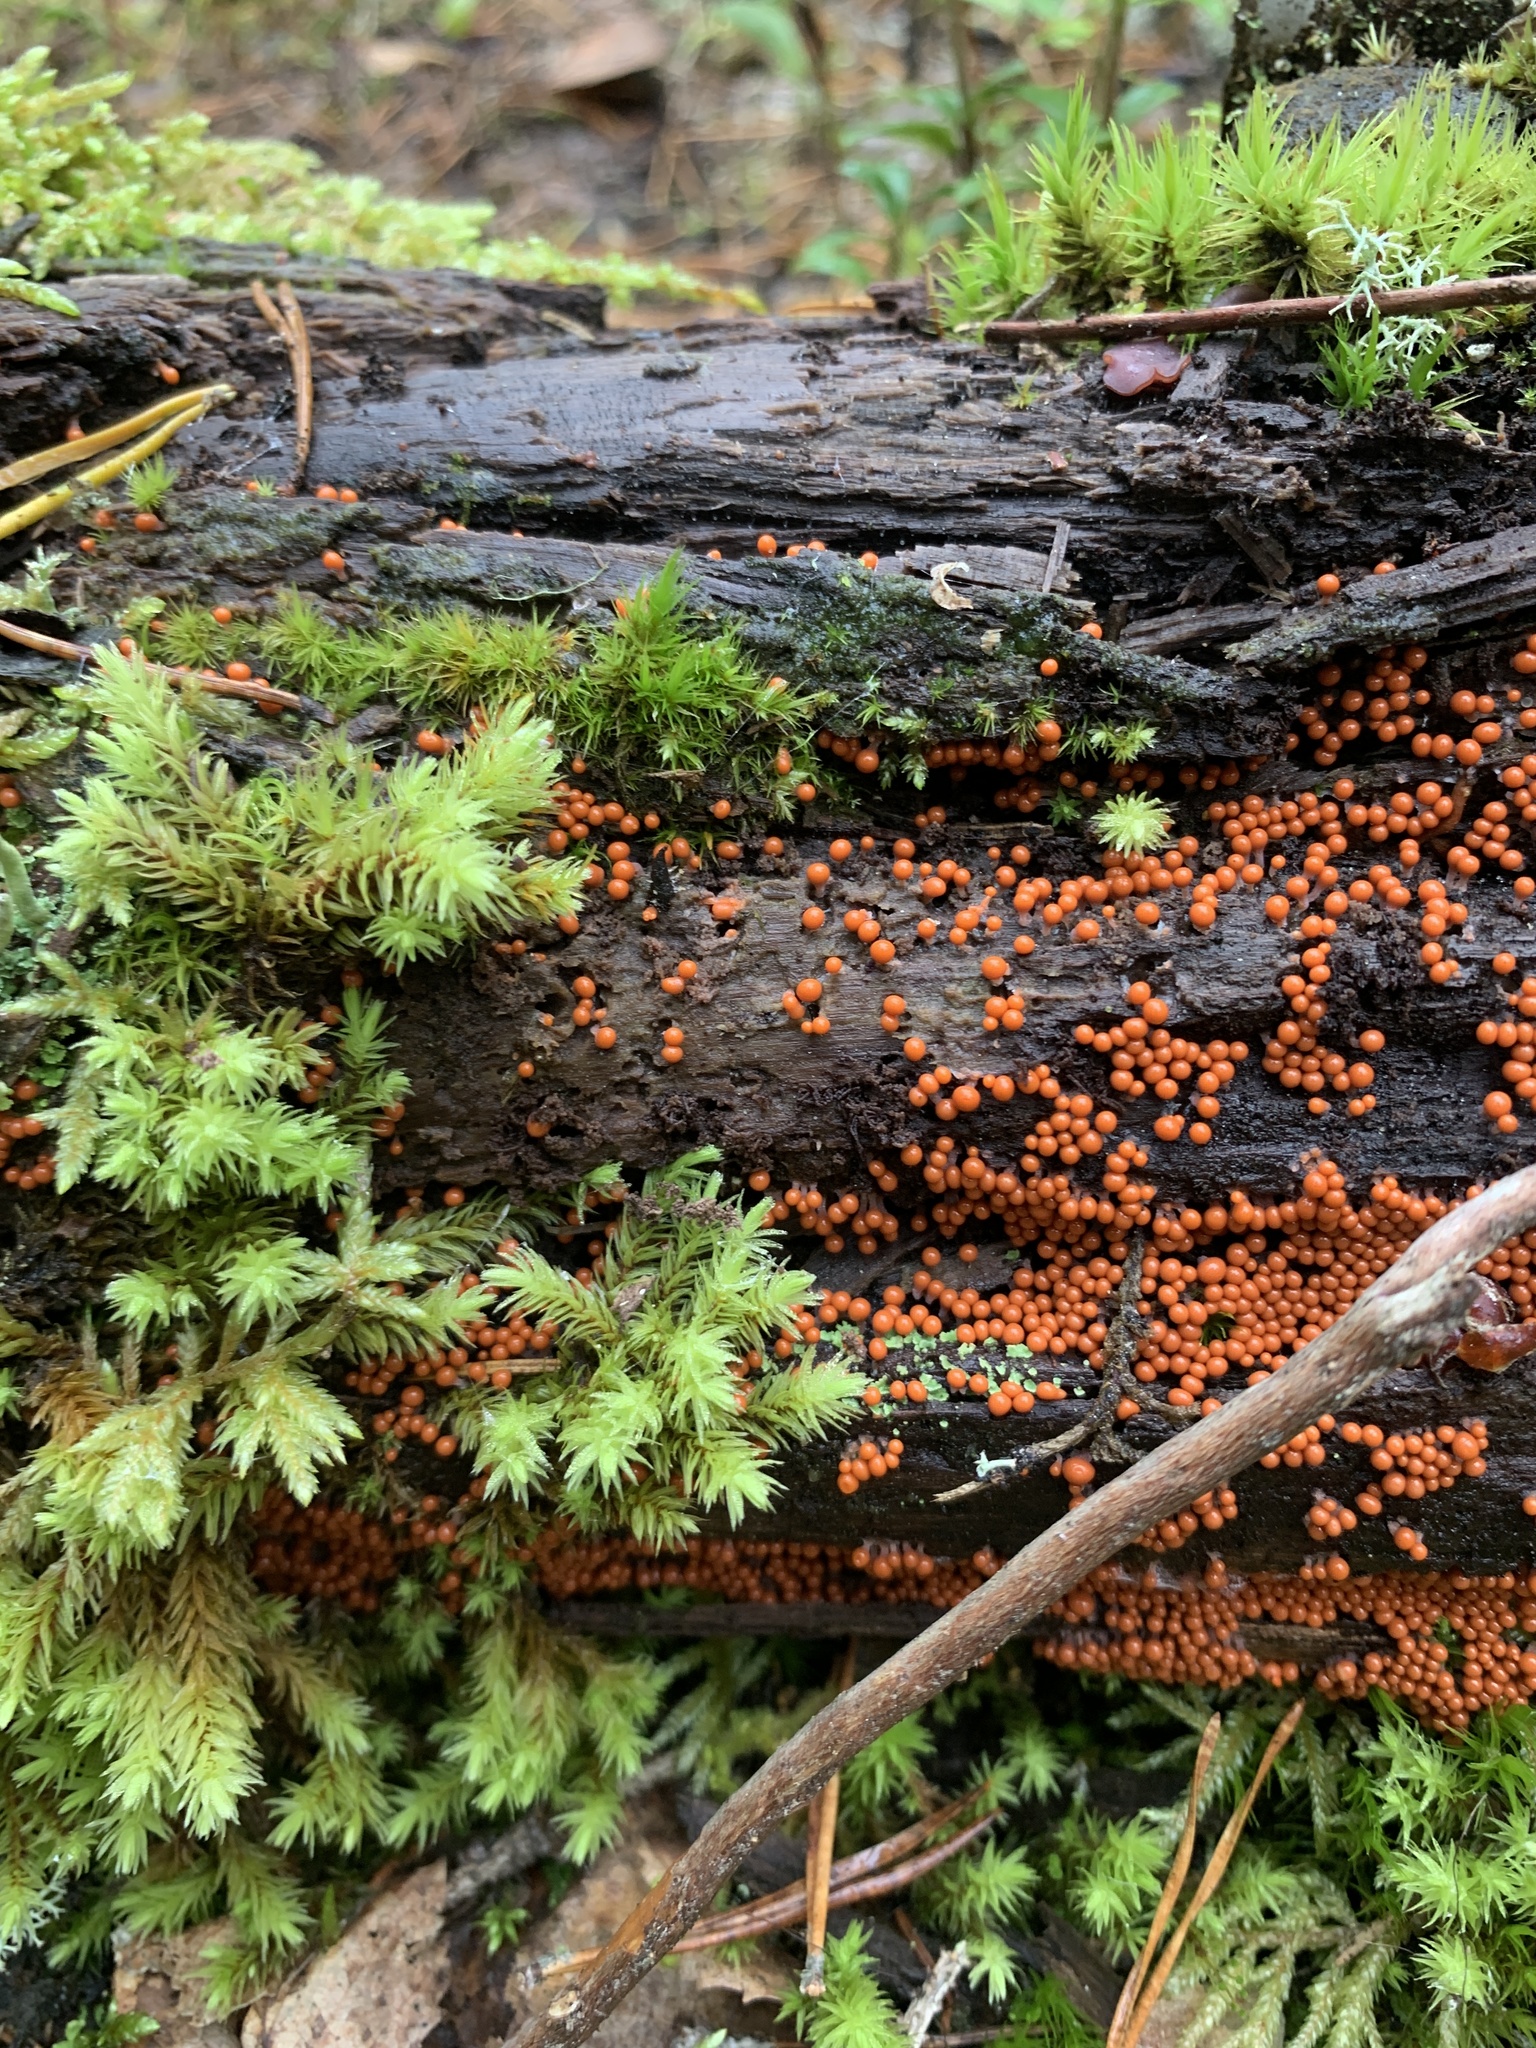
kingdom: Protozoa
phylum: Mycetozoa
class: Myxomycetes
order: Trichiales
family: Arcyriaceae
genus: Hemitrichia
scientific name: Hemitrichia decipiens
